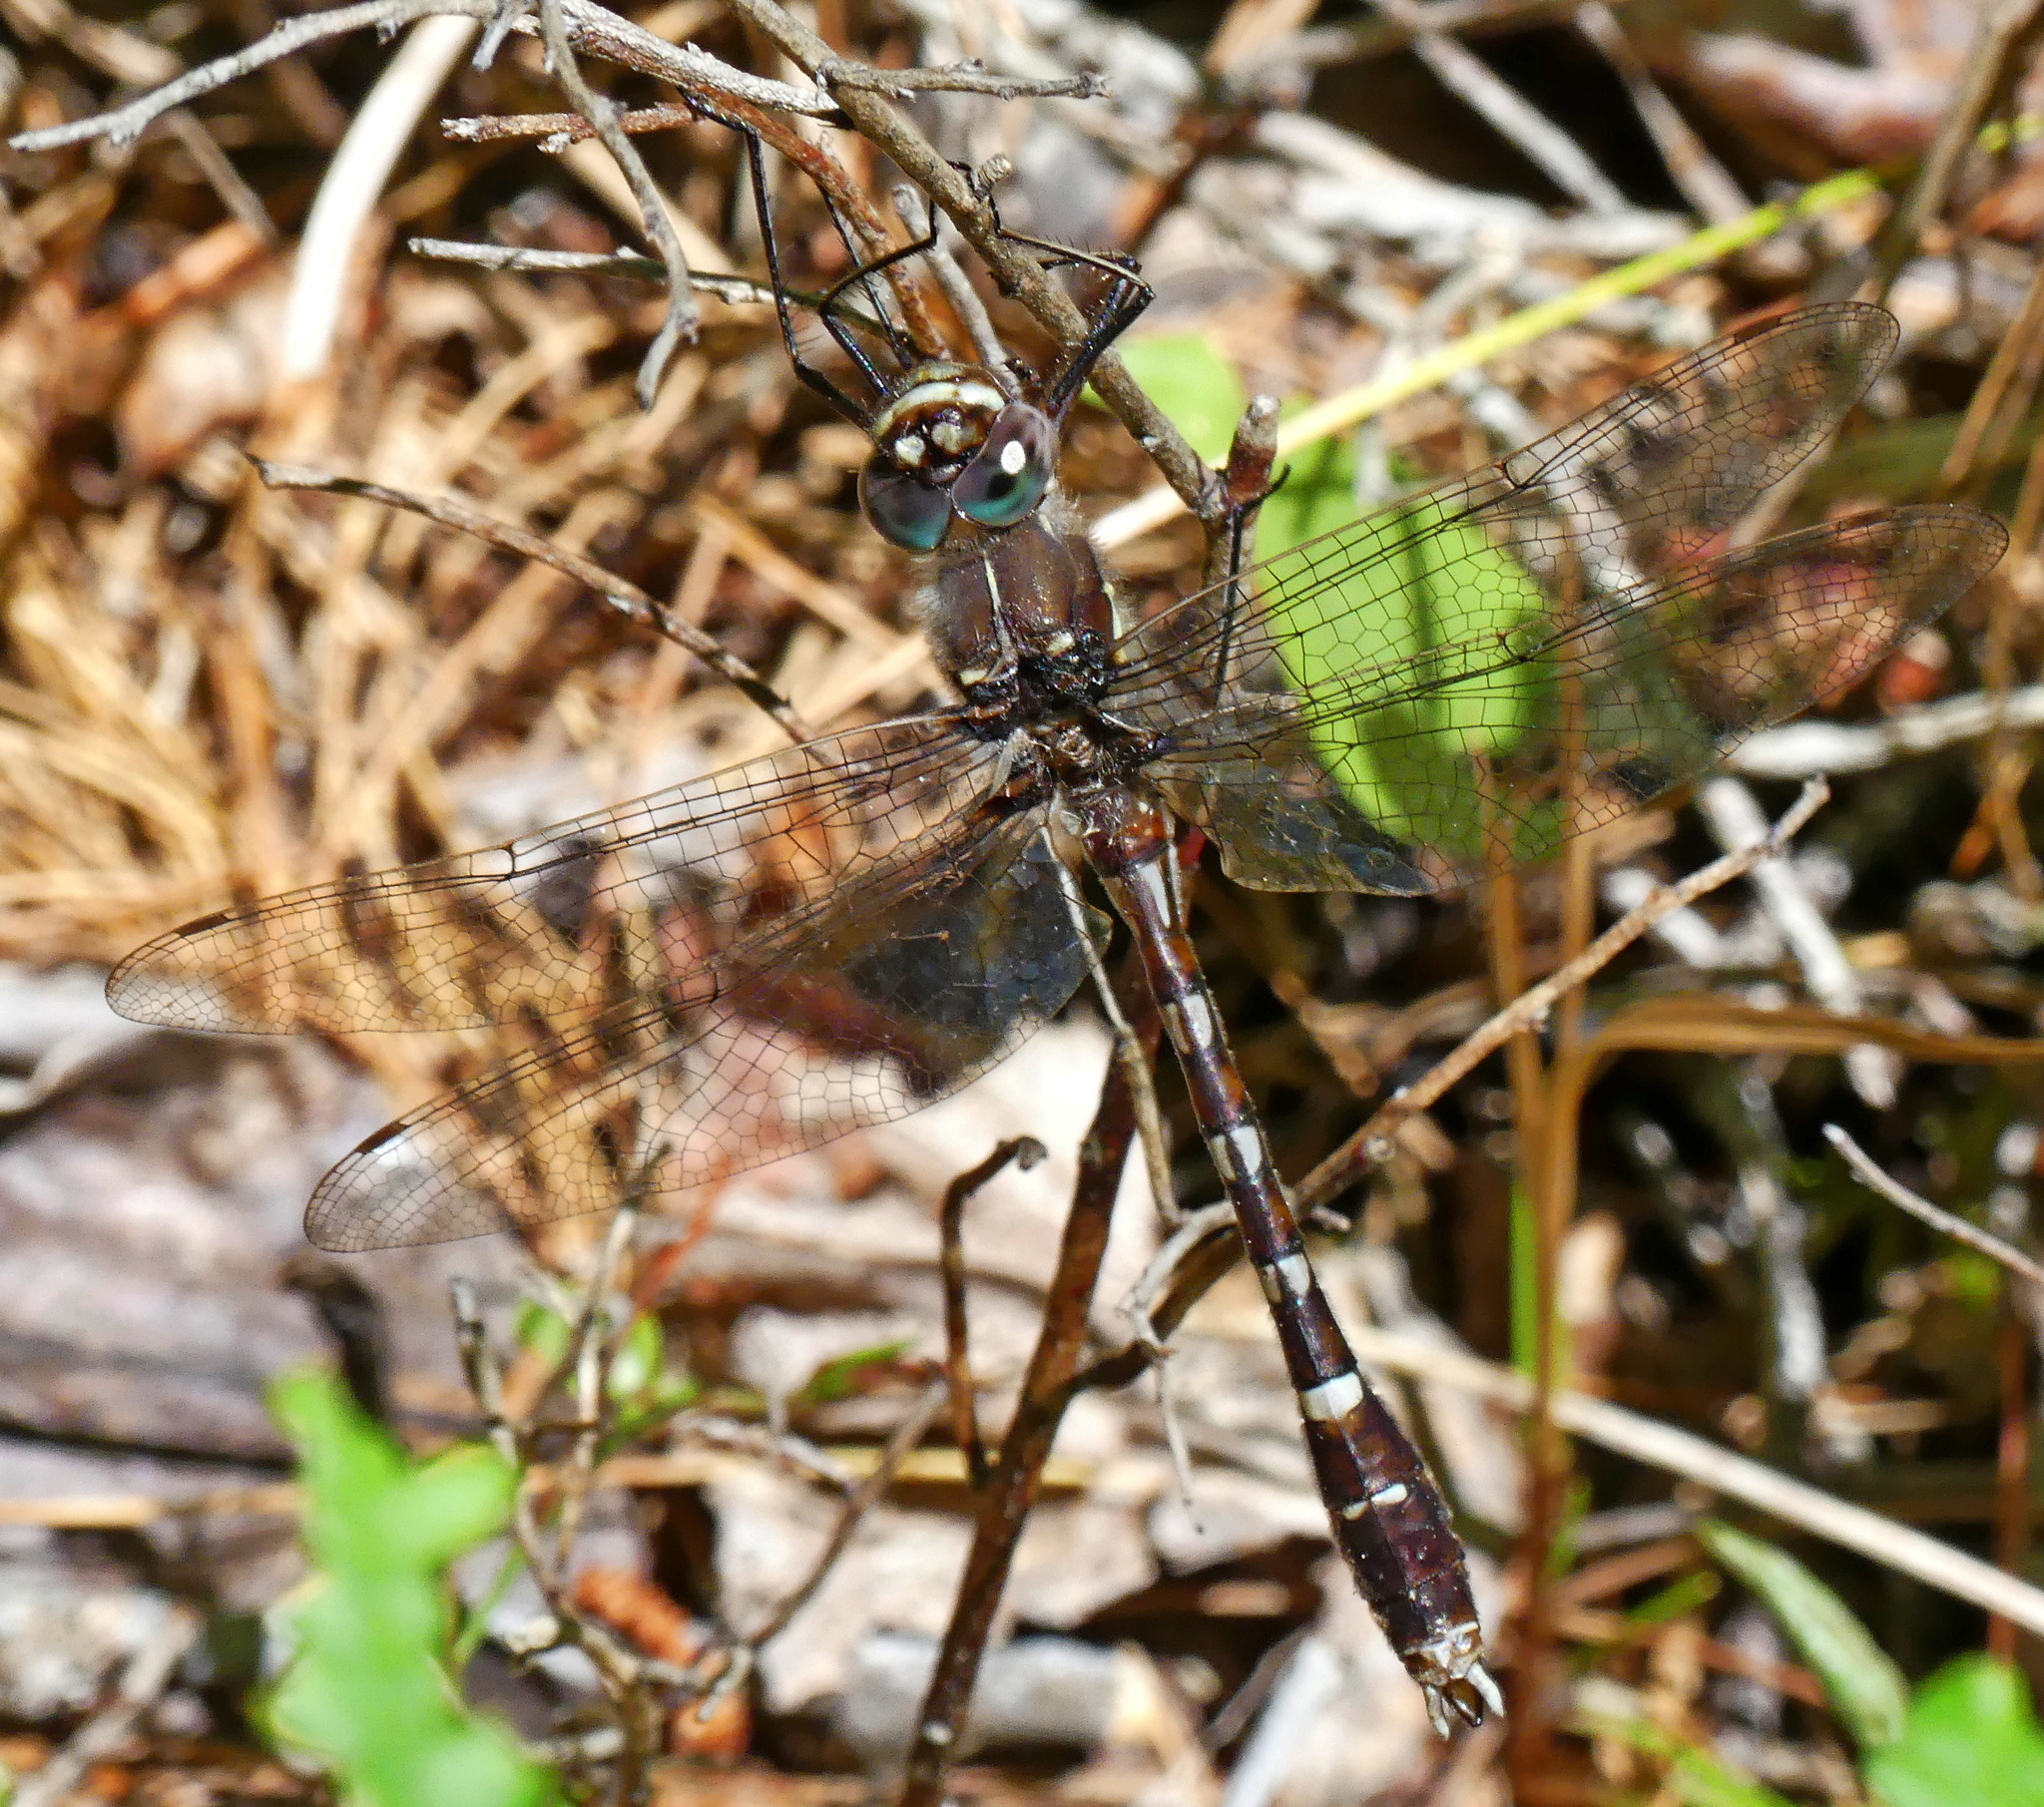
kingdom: Animalia
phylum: Arthropoda
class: Insecta
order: Odonata
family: Macromiidae
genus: Didymops
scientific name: Didymops transversa
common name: Stream cruiser
